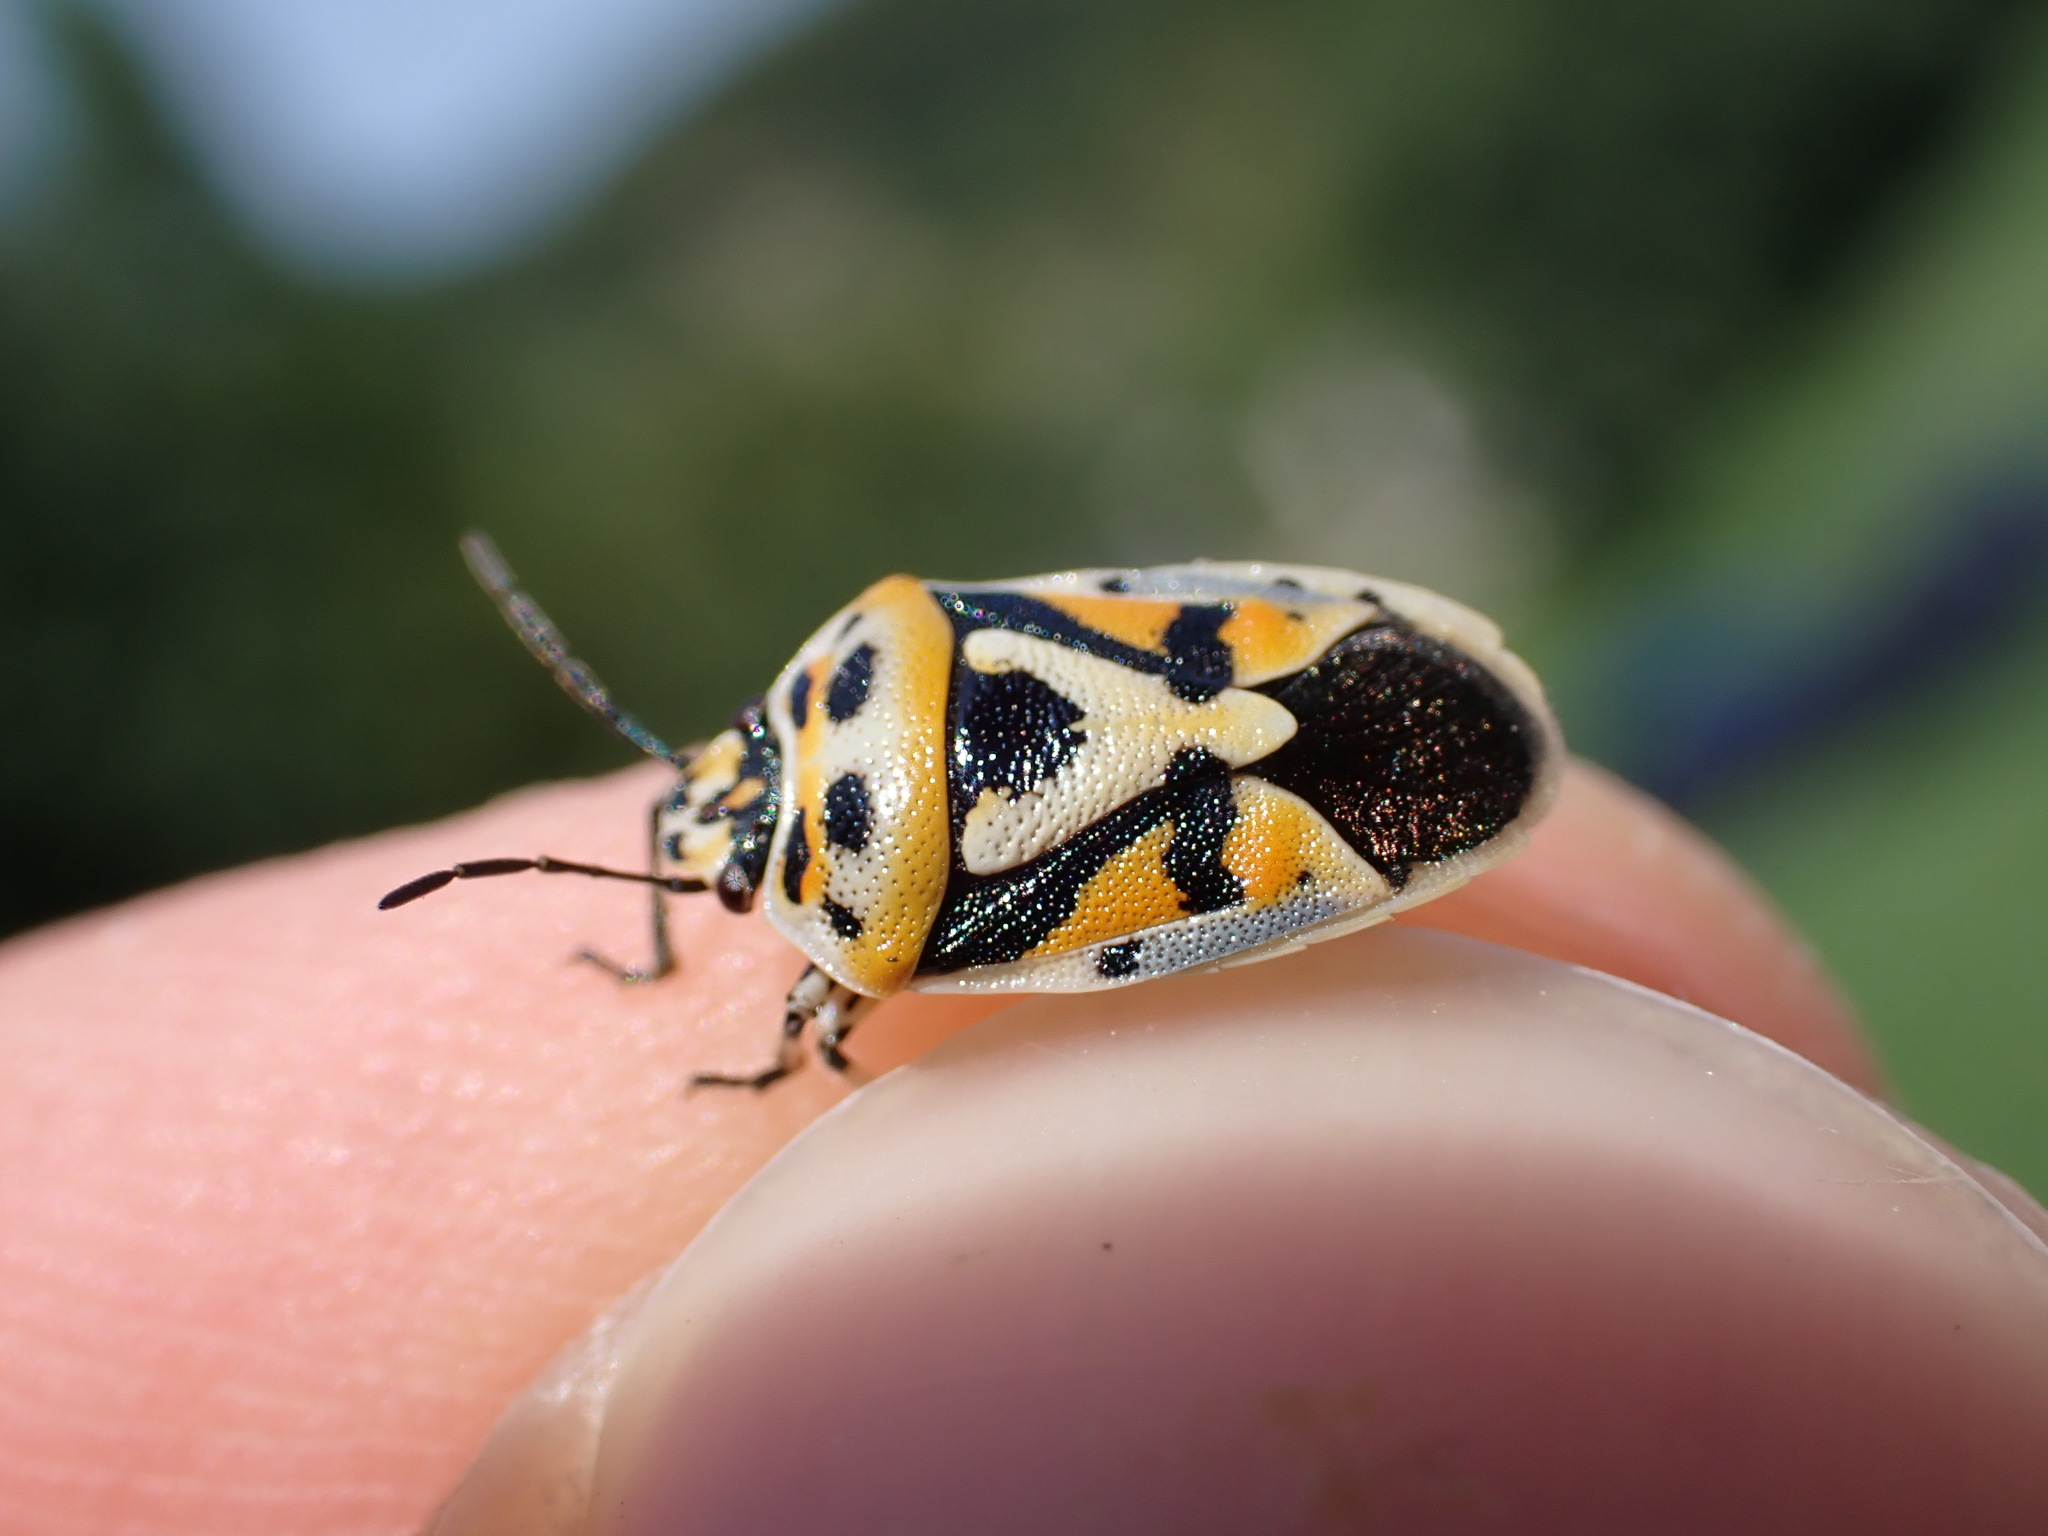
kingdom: Animalia
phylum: Arthropoda
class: Insecta
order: Hemiptera
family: Pentatomidae
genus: Eurydema
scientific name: Eurydema ornata
